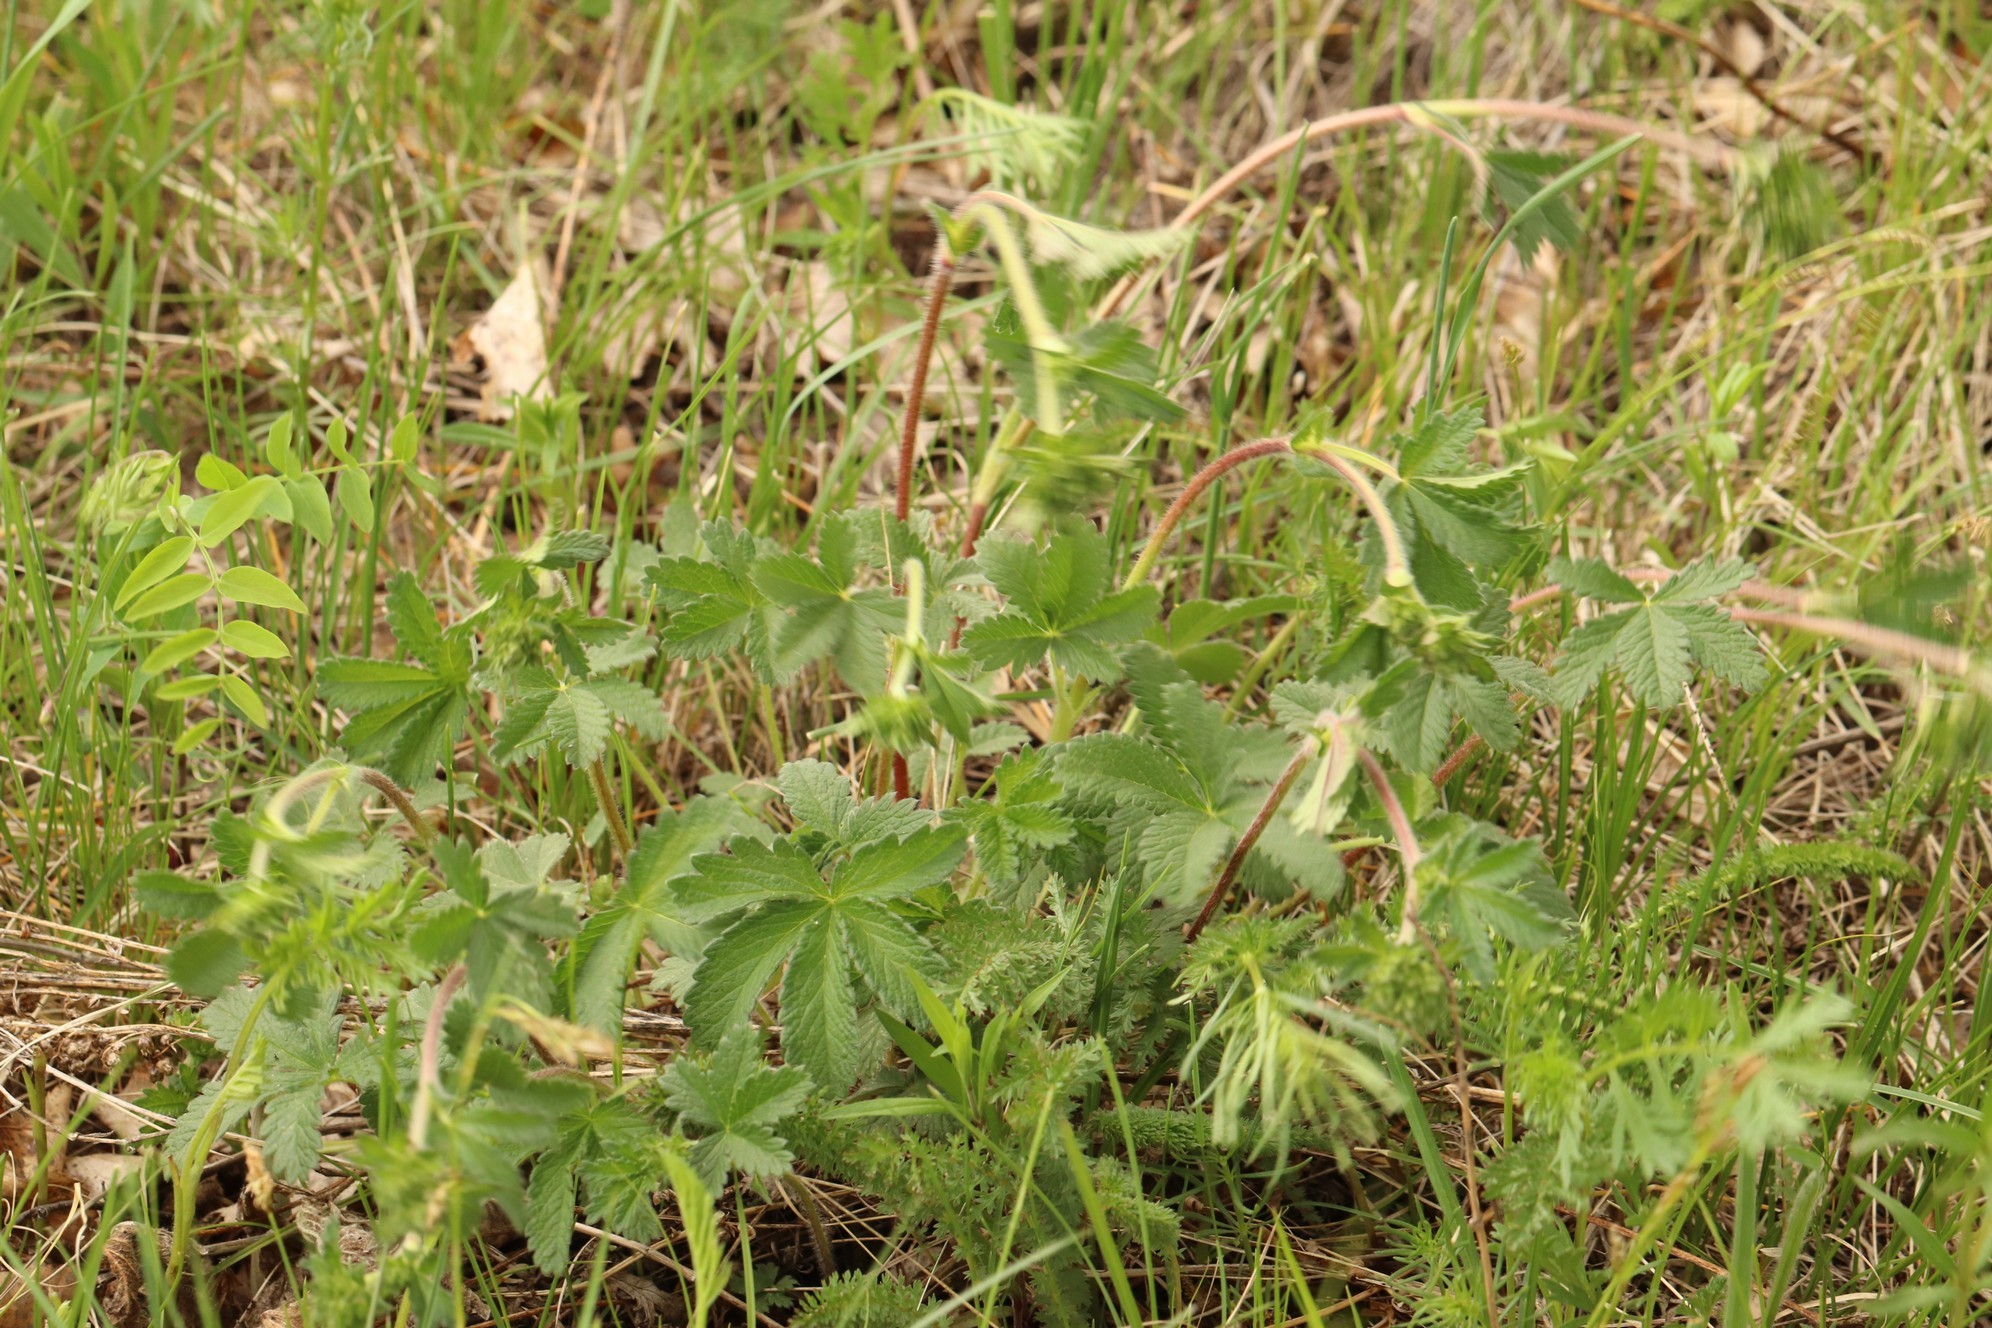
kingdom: Plantae
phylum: Tracheophyta
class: Magnoliopsida
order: Rosales
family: Rosaceae
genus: Potentilla
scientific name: Potentilla chrysantha
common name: Thuringian cinquefoil
